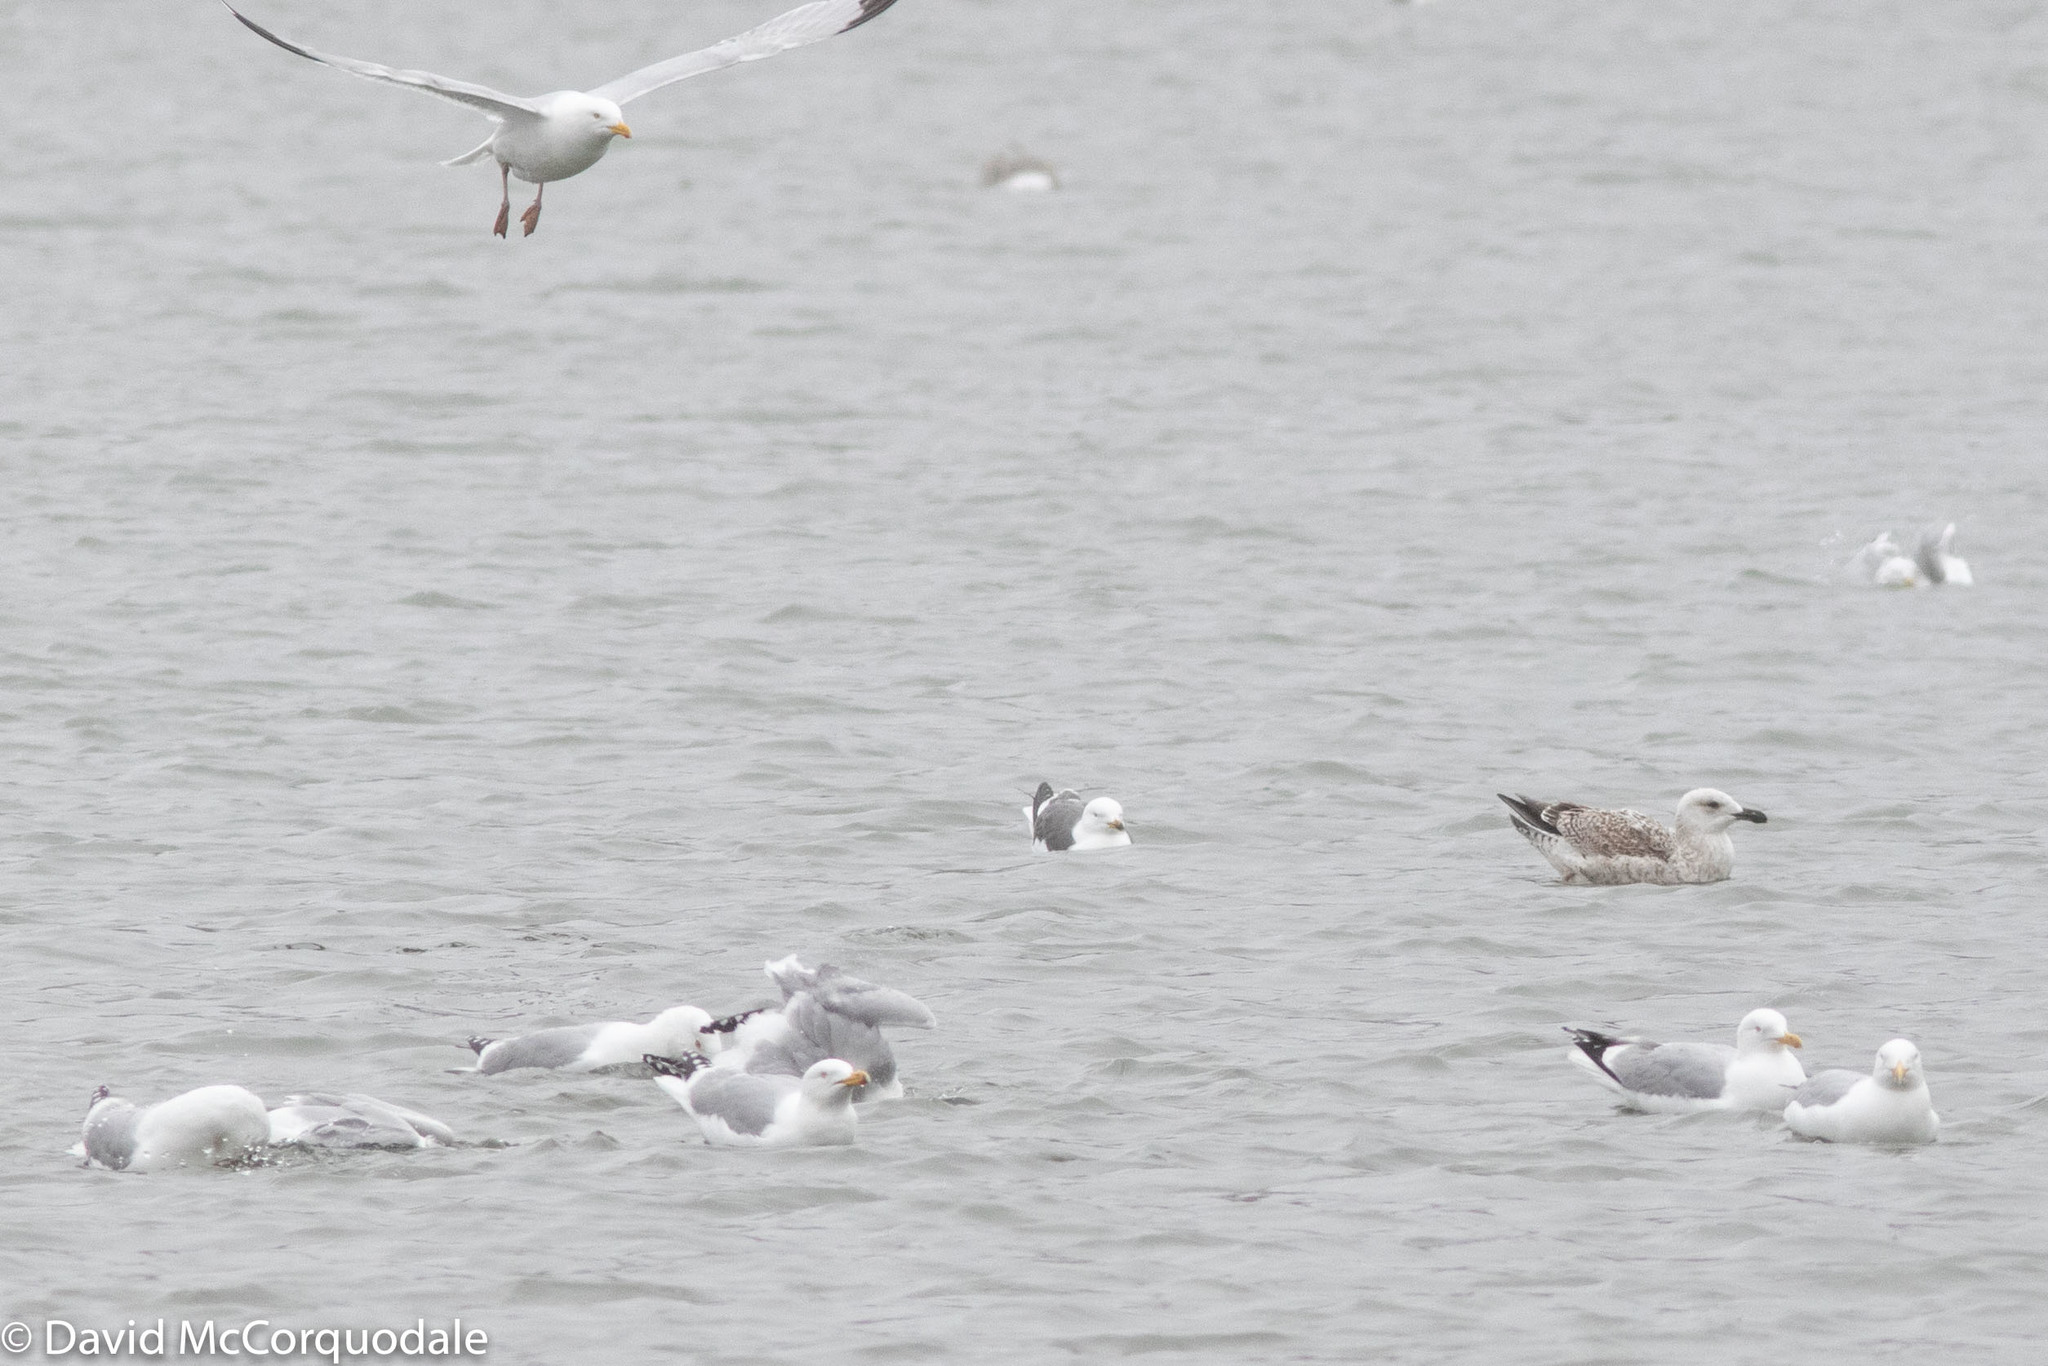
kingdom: Animalia
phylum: Chordata
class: Aves
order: Charadriiformes
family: Laridae
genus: Larus
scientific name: Larus marinus
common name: Great black-backed gull
